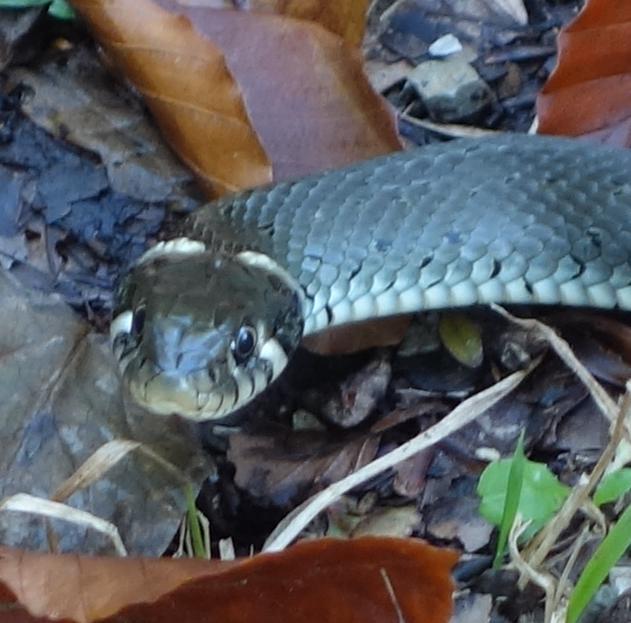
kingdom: Animalia
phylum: Chordata
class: Squamata
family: Colubridae
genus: Natrix
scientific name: Natrix natrix
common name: Grass snake
